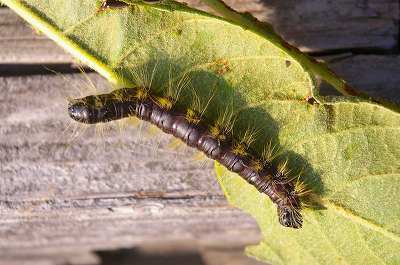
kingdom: Animalia
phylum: Arthropoda
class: Insecta
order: Lepidoptera
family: Notodontidae
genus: Phalera
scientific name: Phalera flavescens
